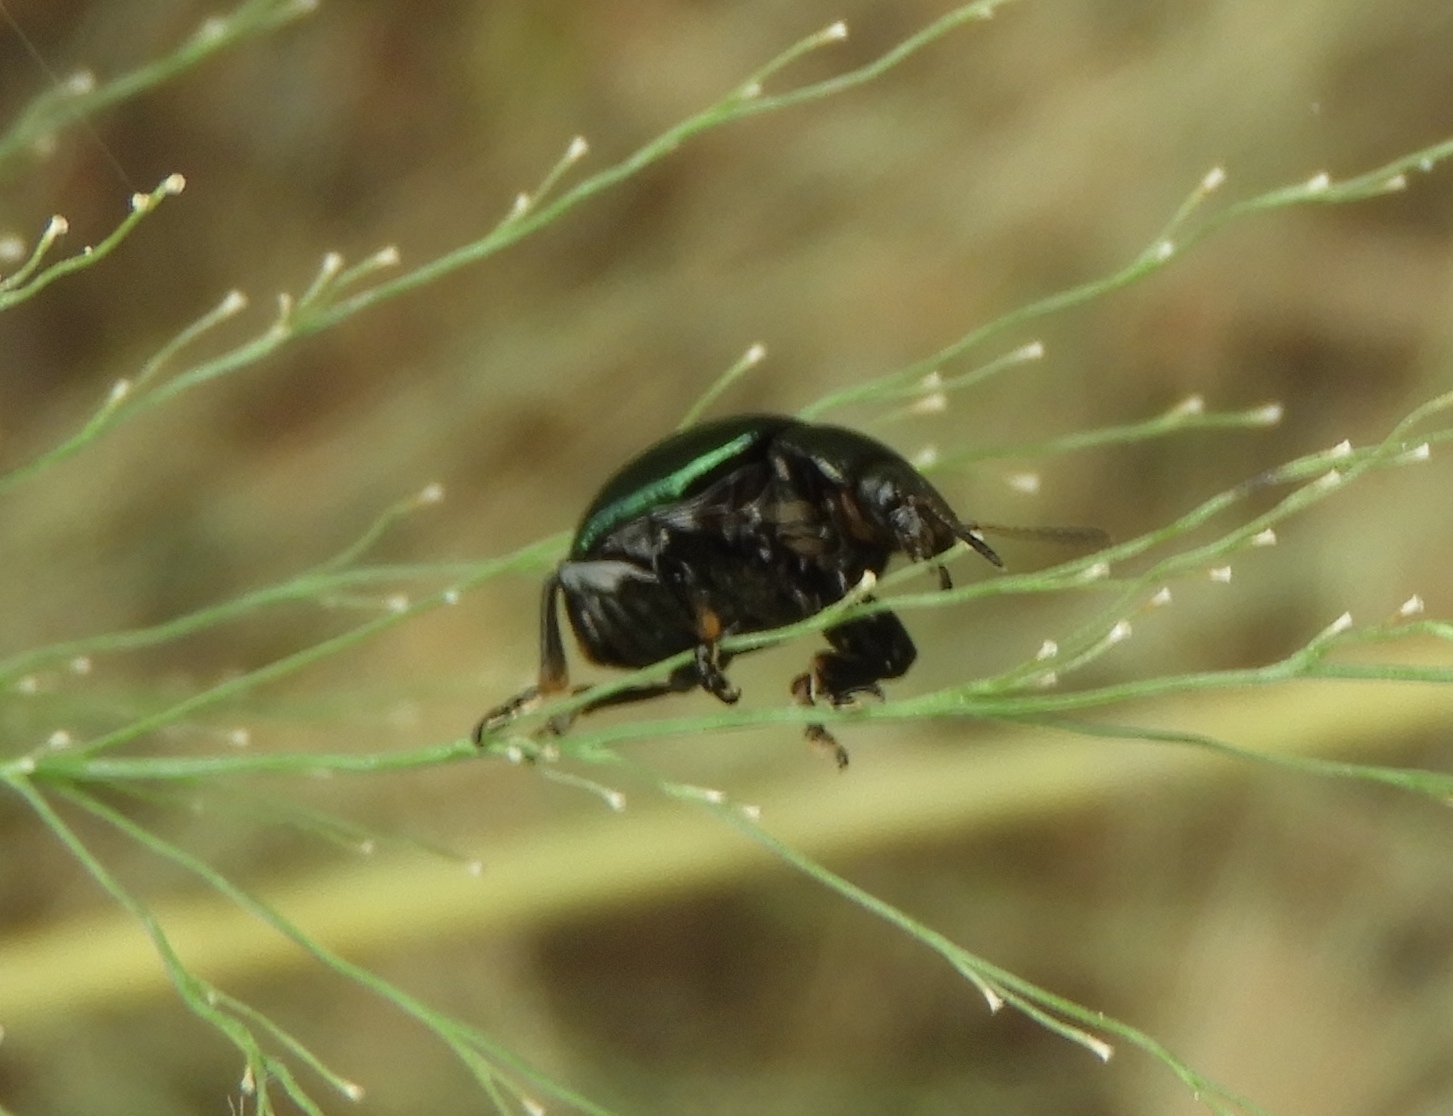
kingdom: Animalia
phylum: Arthropoda
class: Insecta
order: Coleoptera
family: Chrysomelidae
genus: Leptinotarsa
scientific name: Leptinotarsa haldemani
